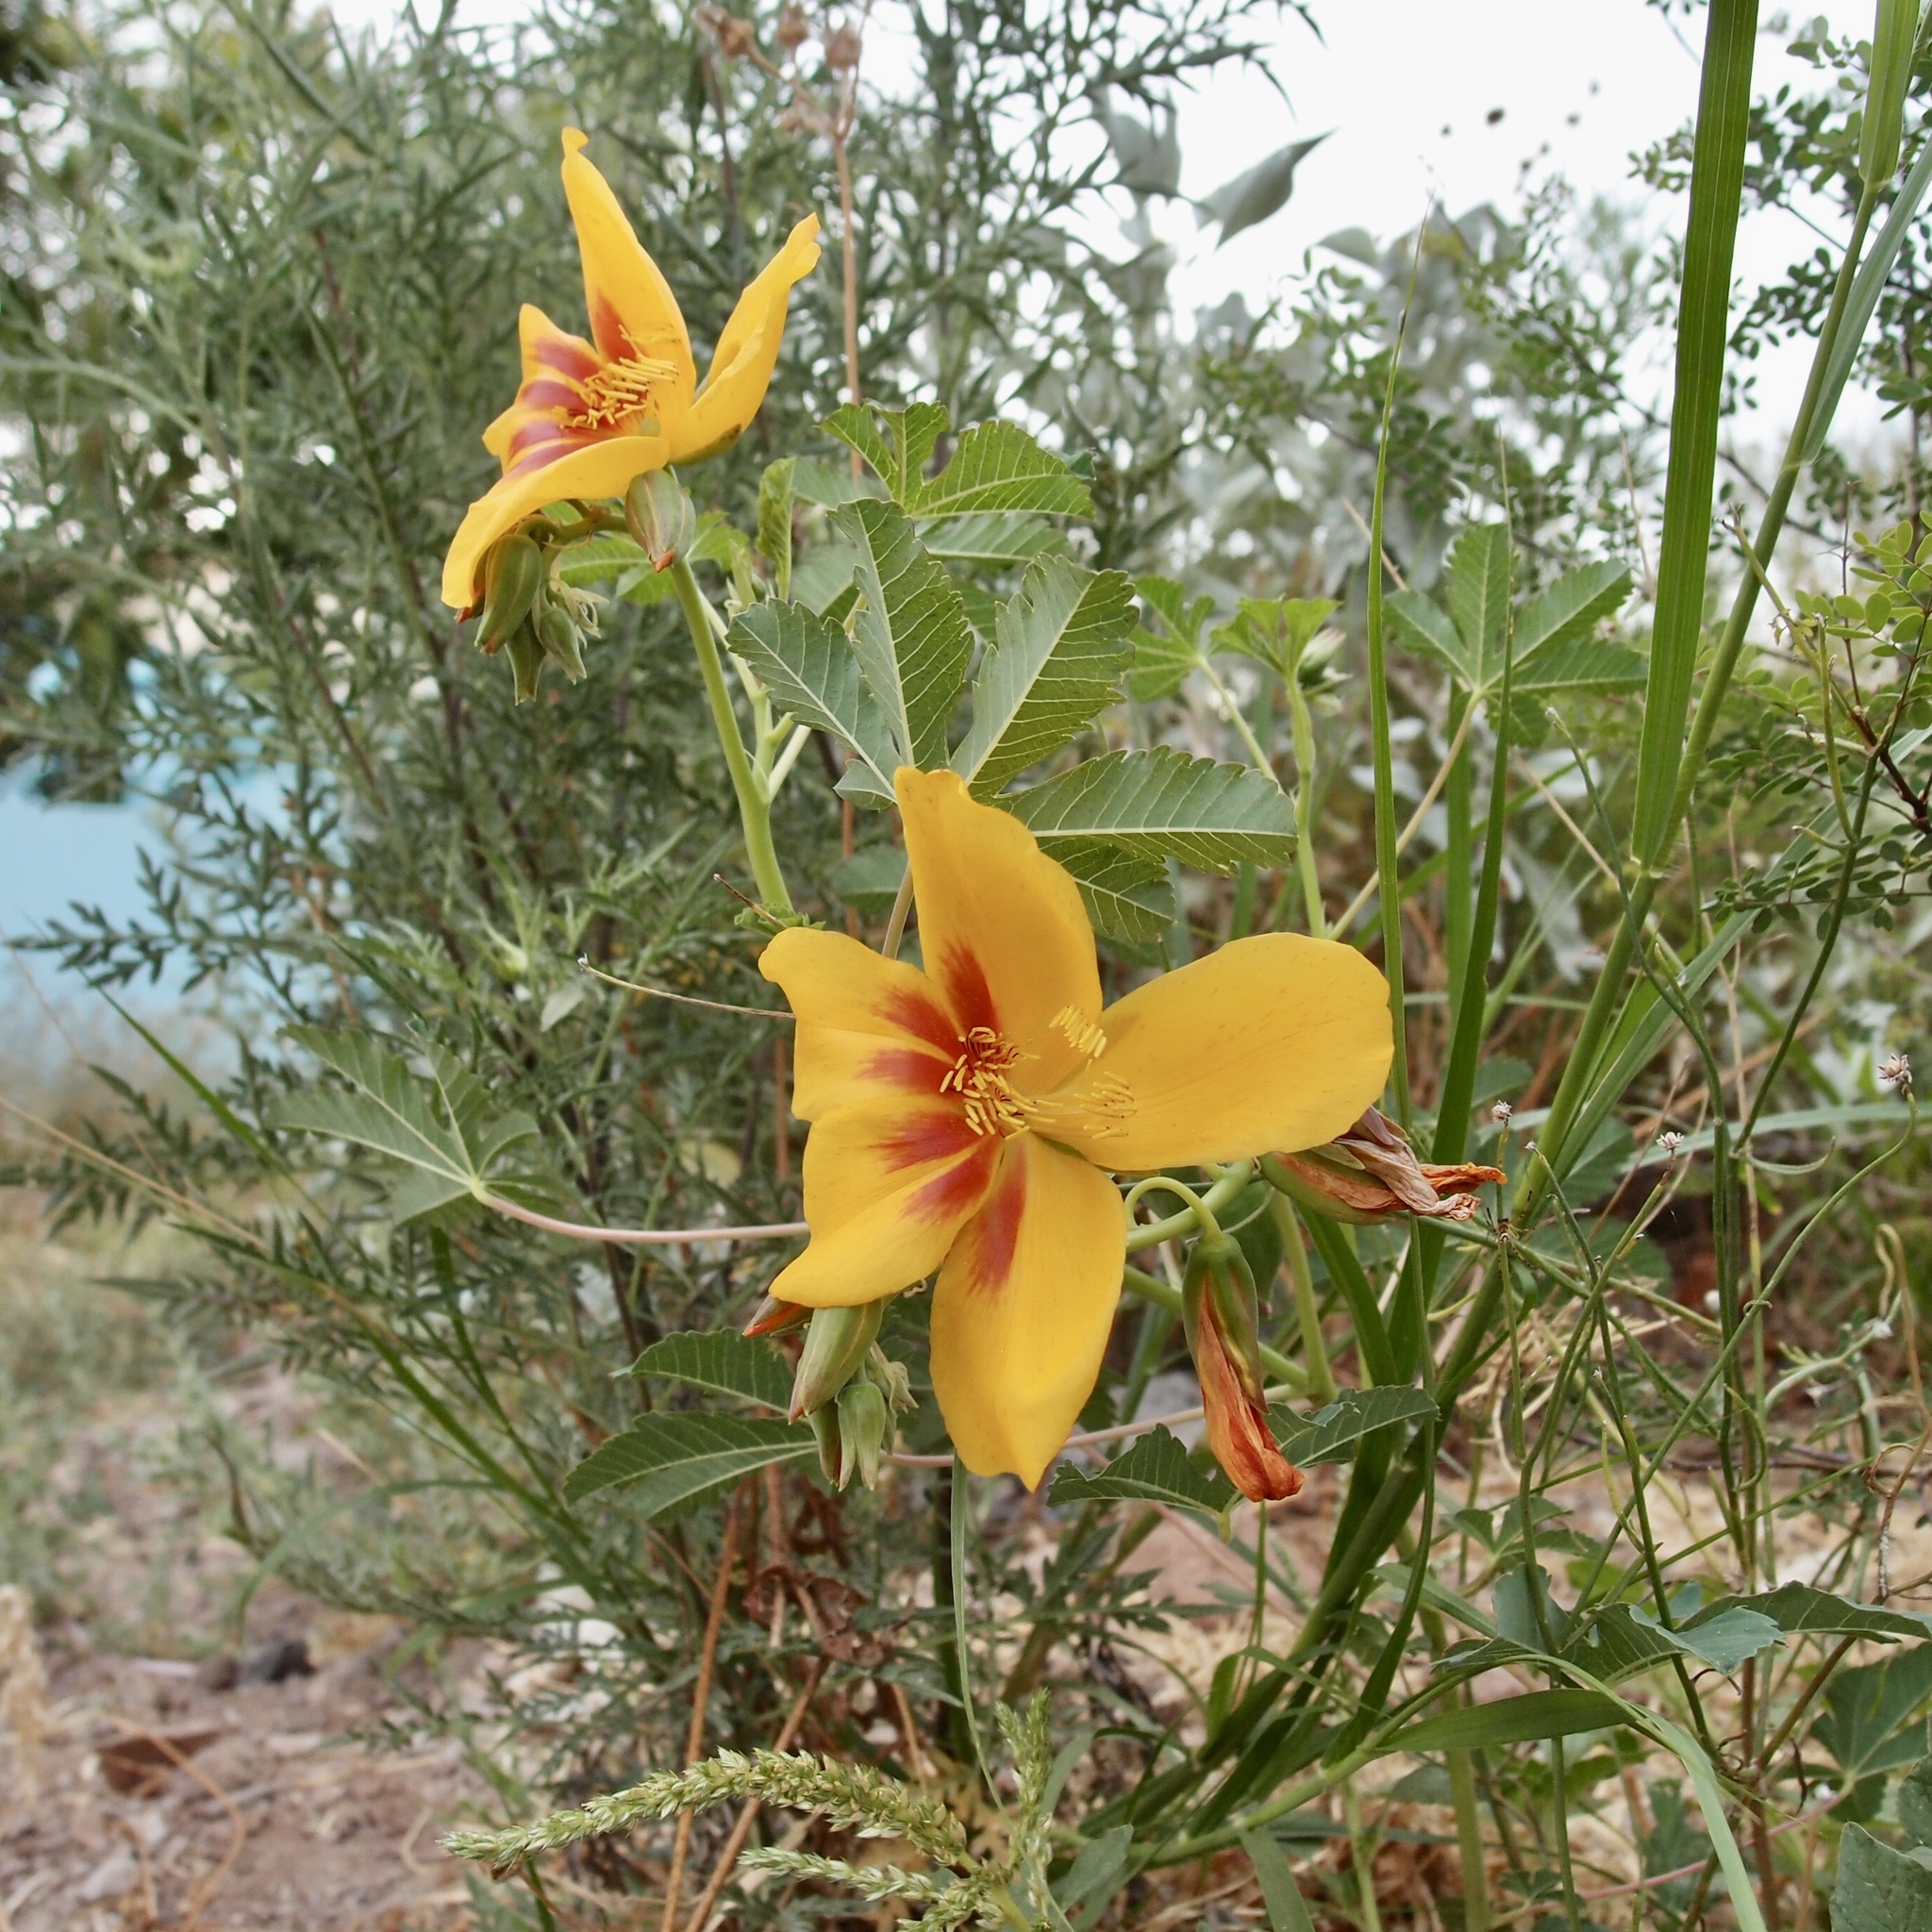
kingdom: Plantae
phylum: Tracheophyta
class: Magnoliopsida
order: Malvales
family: Cochlospermaceae
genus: Cochlospermum
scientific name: Cochlospermum palmatifidum
